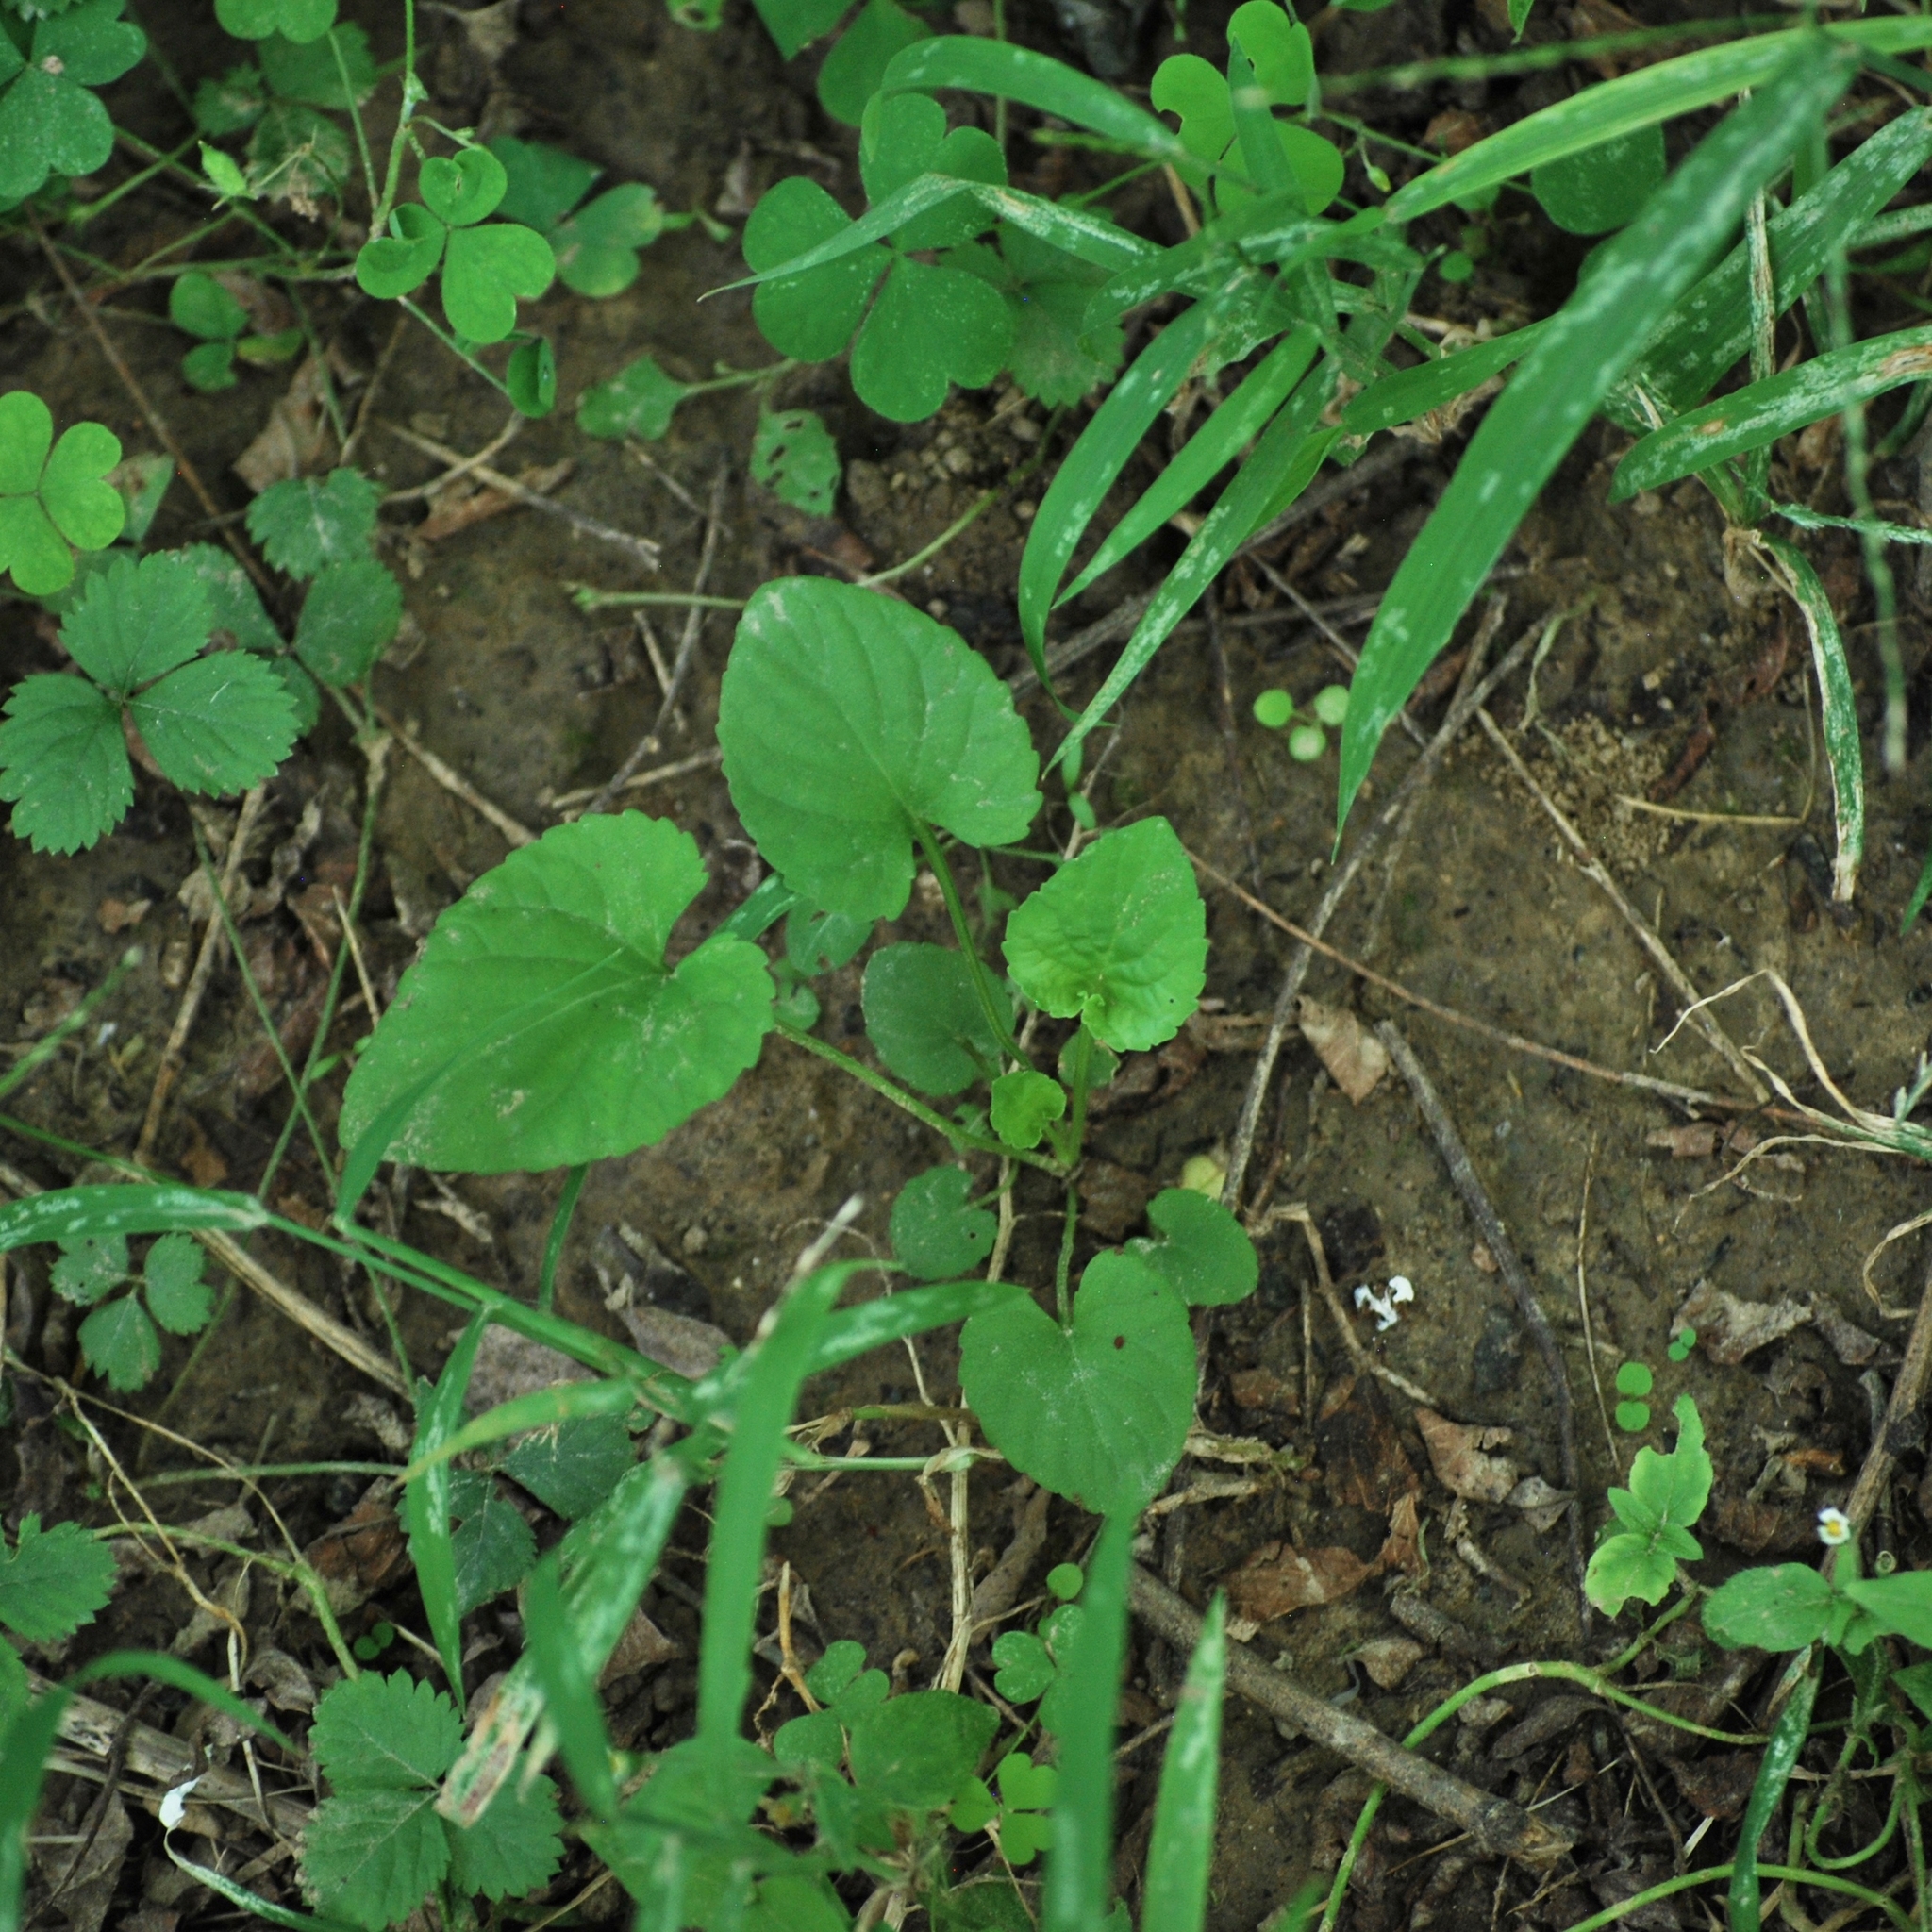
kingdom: Plantae
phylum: Tracheophyta
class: Magnoliopsida
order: Malpighiales
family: Violaceae
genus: Viola
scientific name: Viola prionantha
